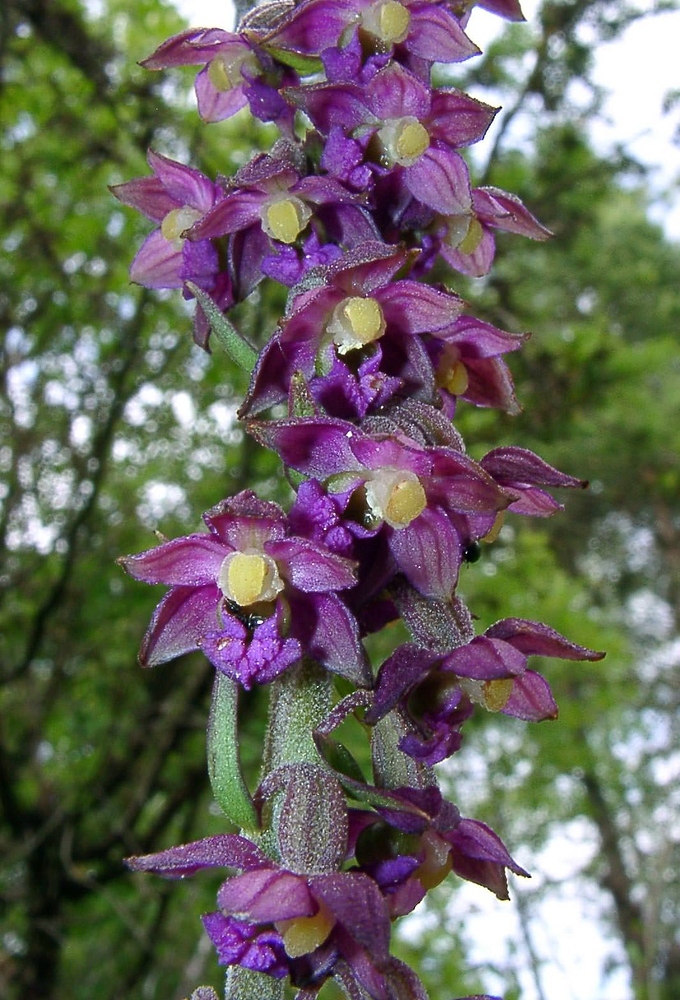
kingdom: Plantae
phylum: Tracheophyta
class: Liliopsida
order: Asparagales
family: Orchidaceae
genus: Epipactis
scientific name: Epipactis atrorubens
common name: Dark-red helleborine
